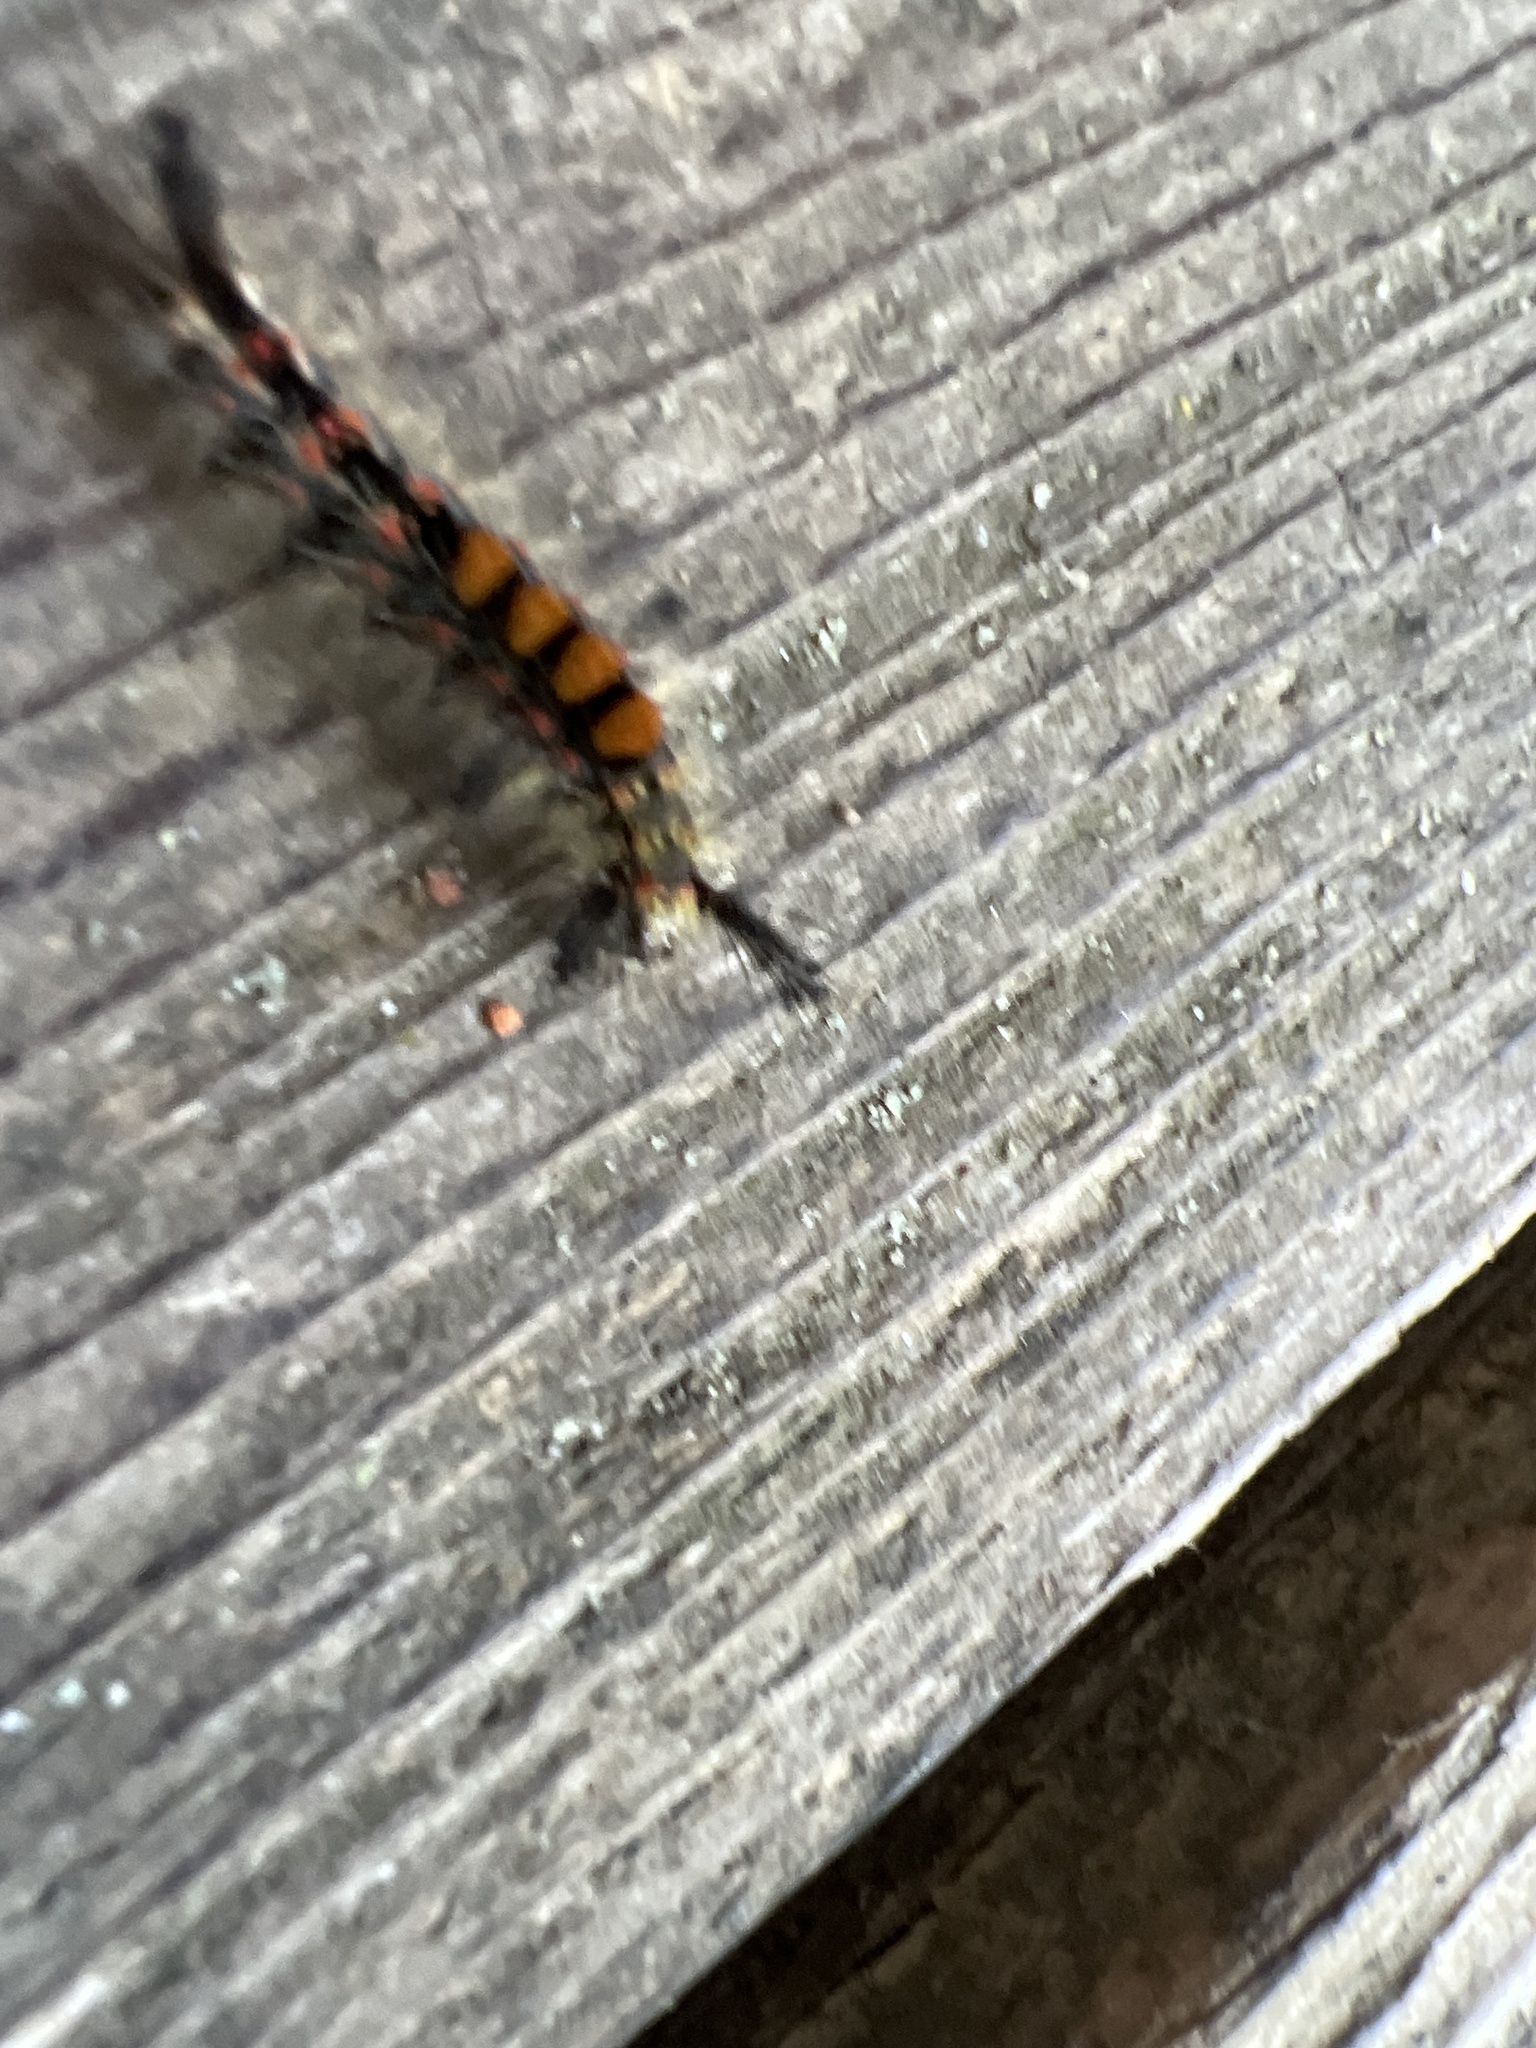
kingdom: Animalia
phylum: Arthropoda
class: Insecta
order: Lepidoptera
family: Erebidae
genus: Orgyia
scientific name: Orgyia antiqua
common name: Vapourer
